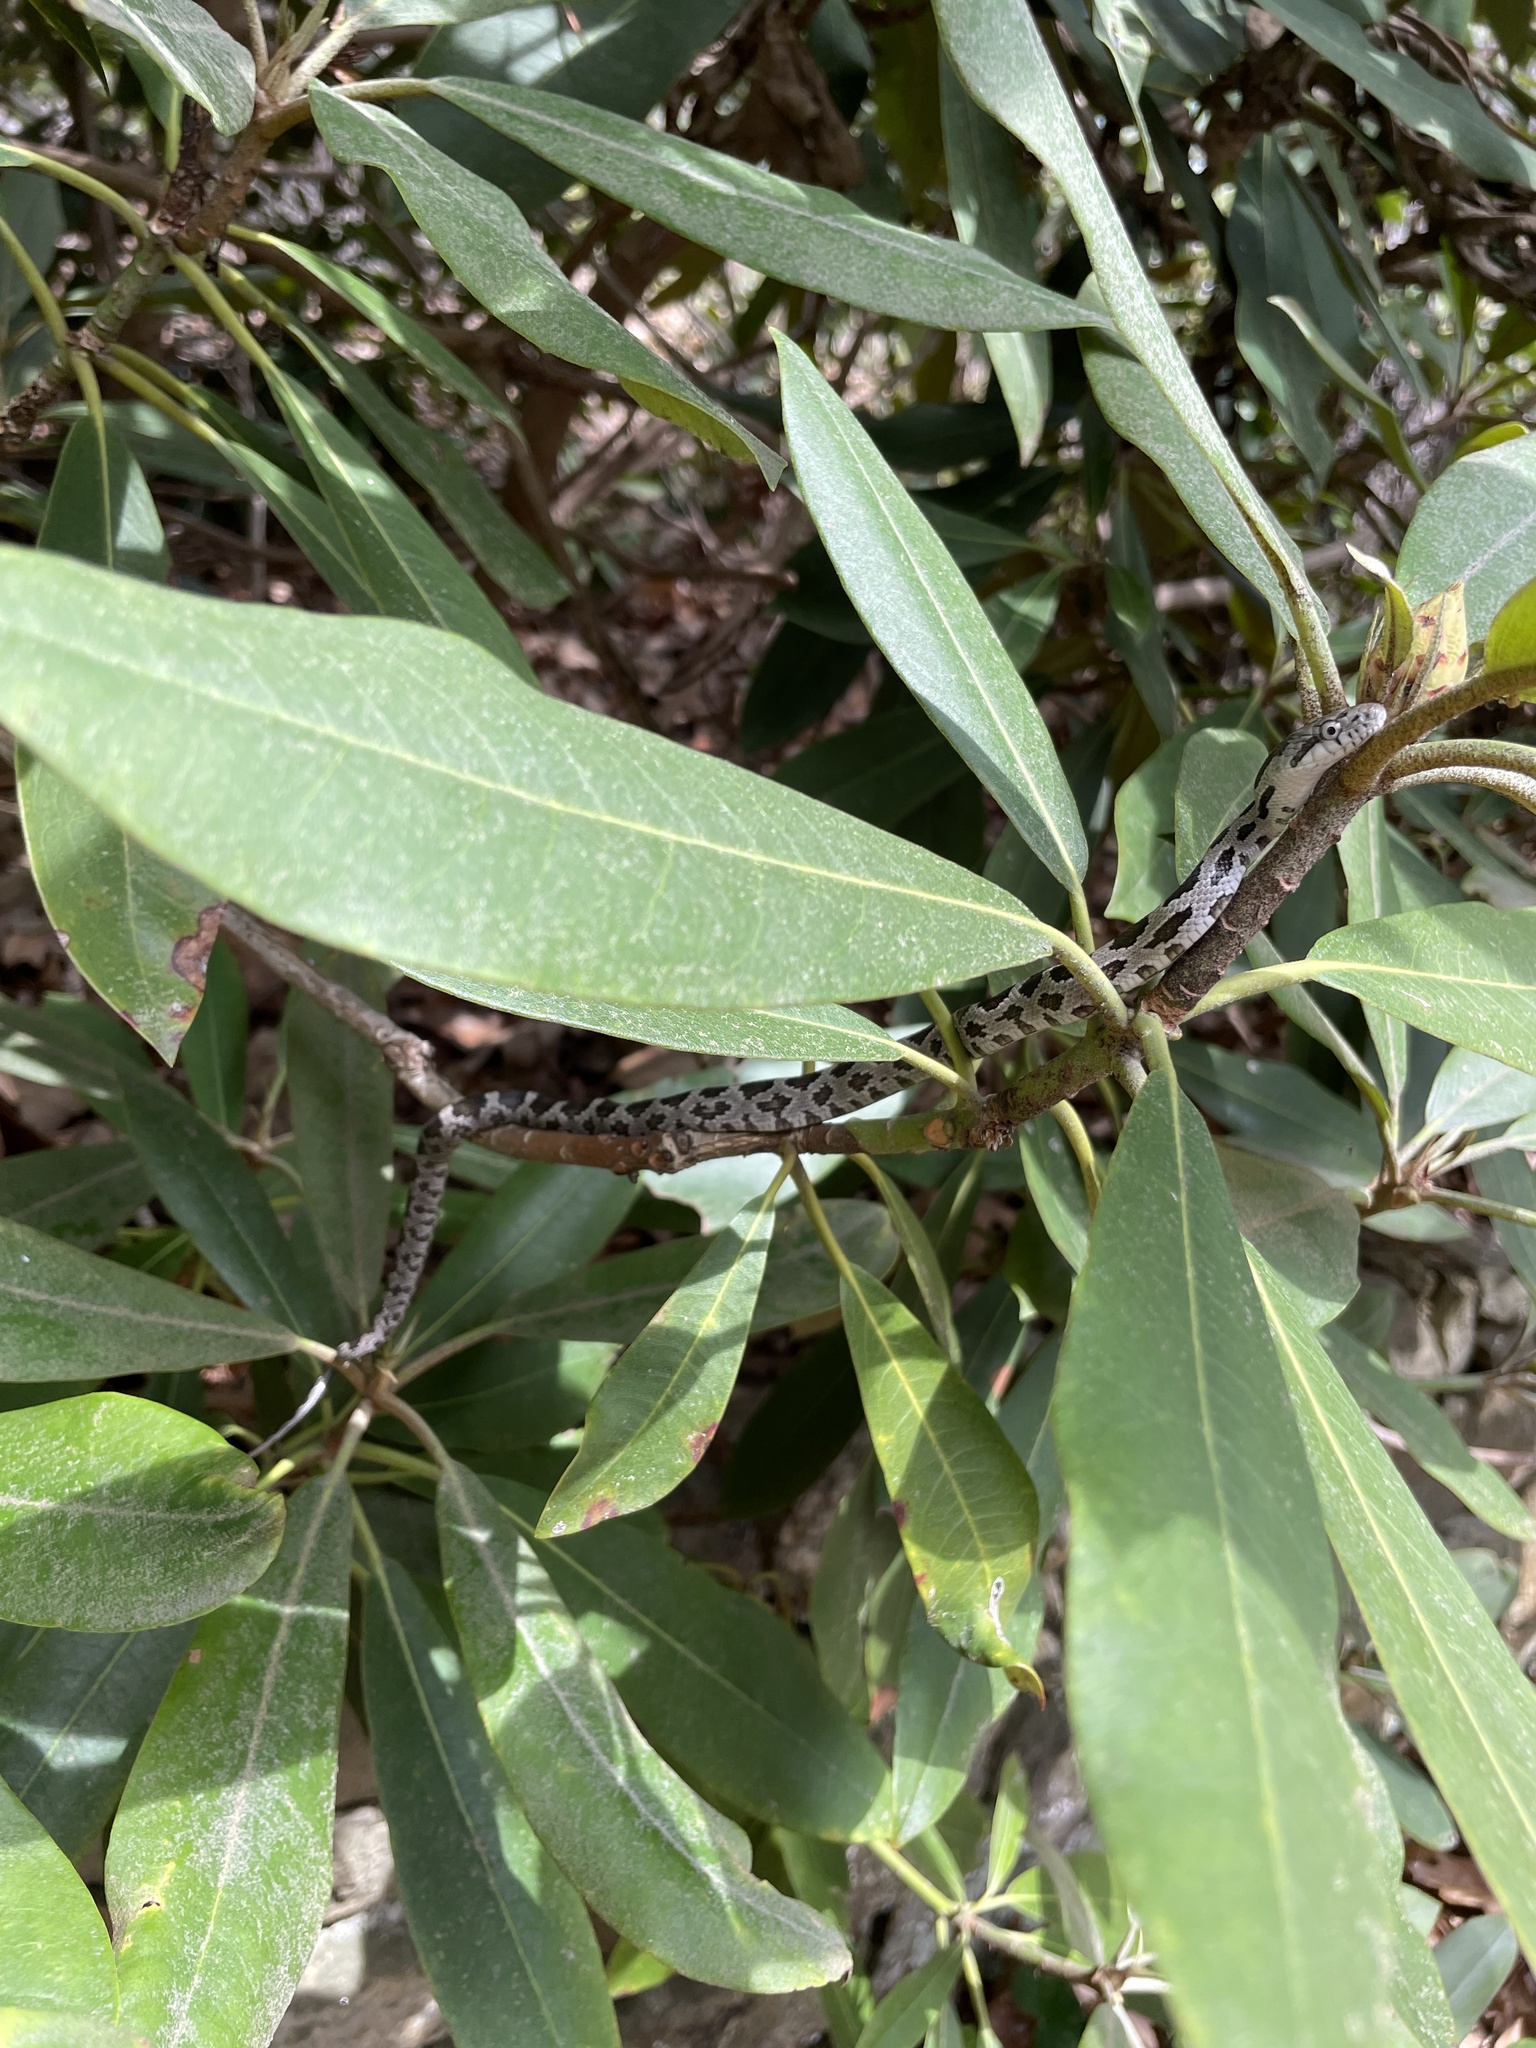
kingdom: Animalia
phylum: Chordata
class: Squamata
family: Colubridae
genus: Pantherophis
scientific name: Pantherophis alleghaniensis
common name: Eastern rat snake
